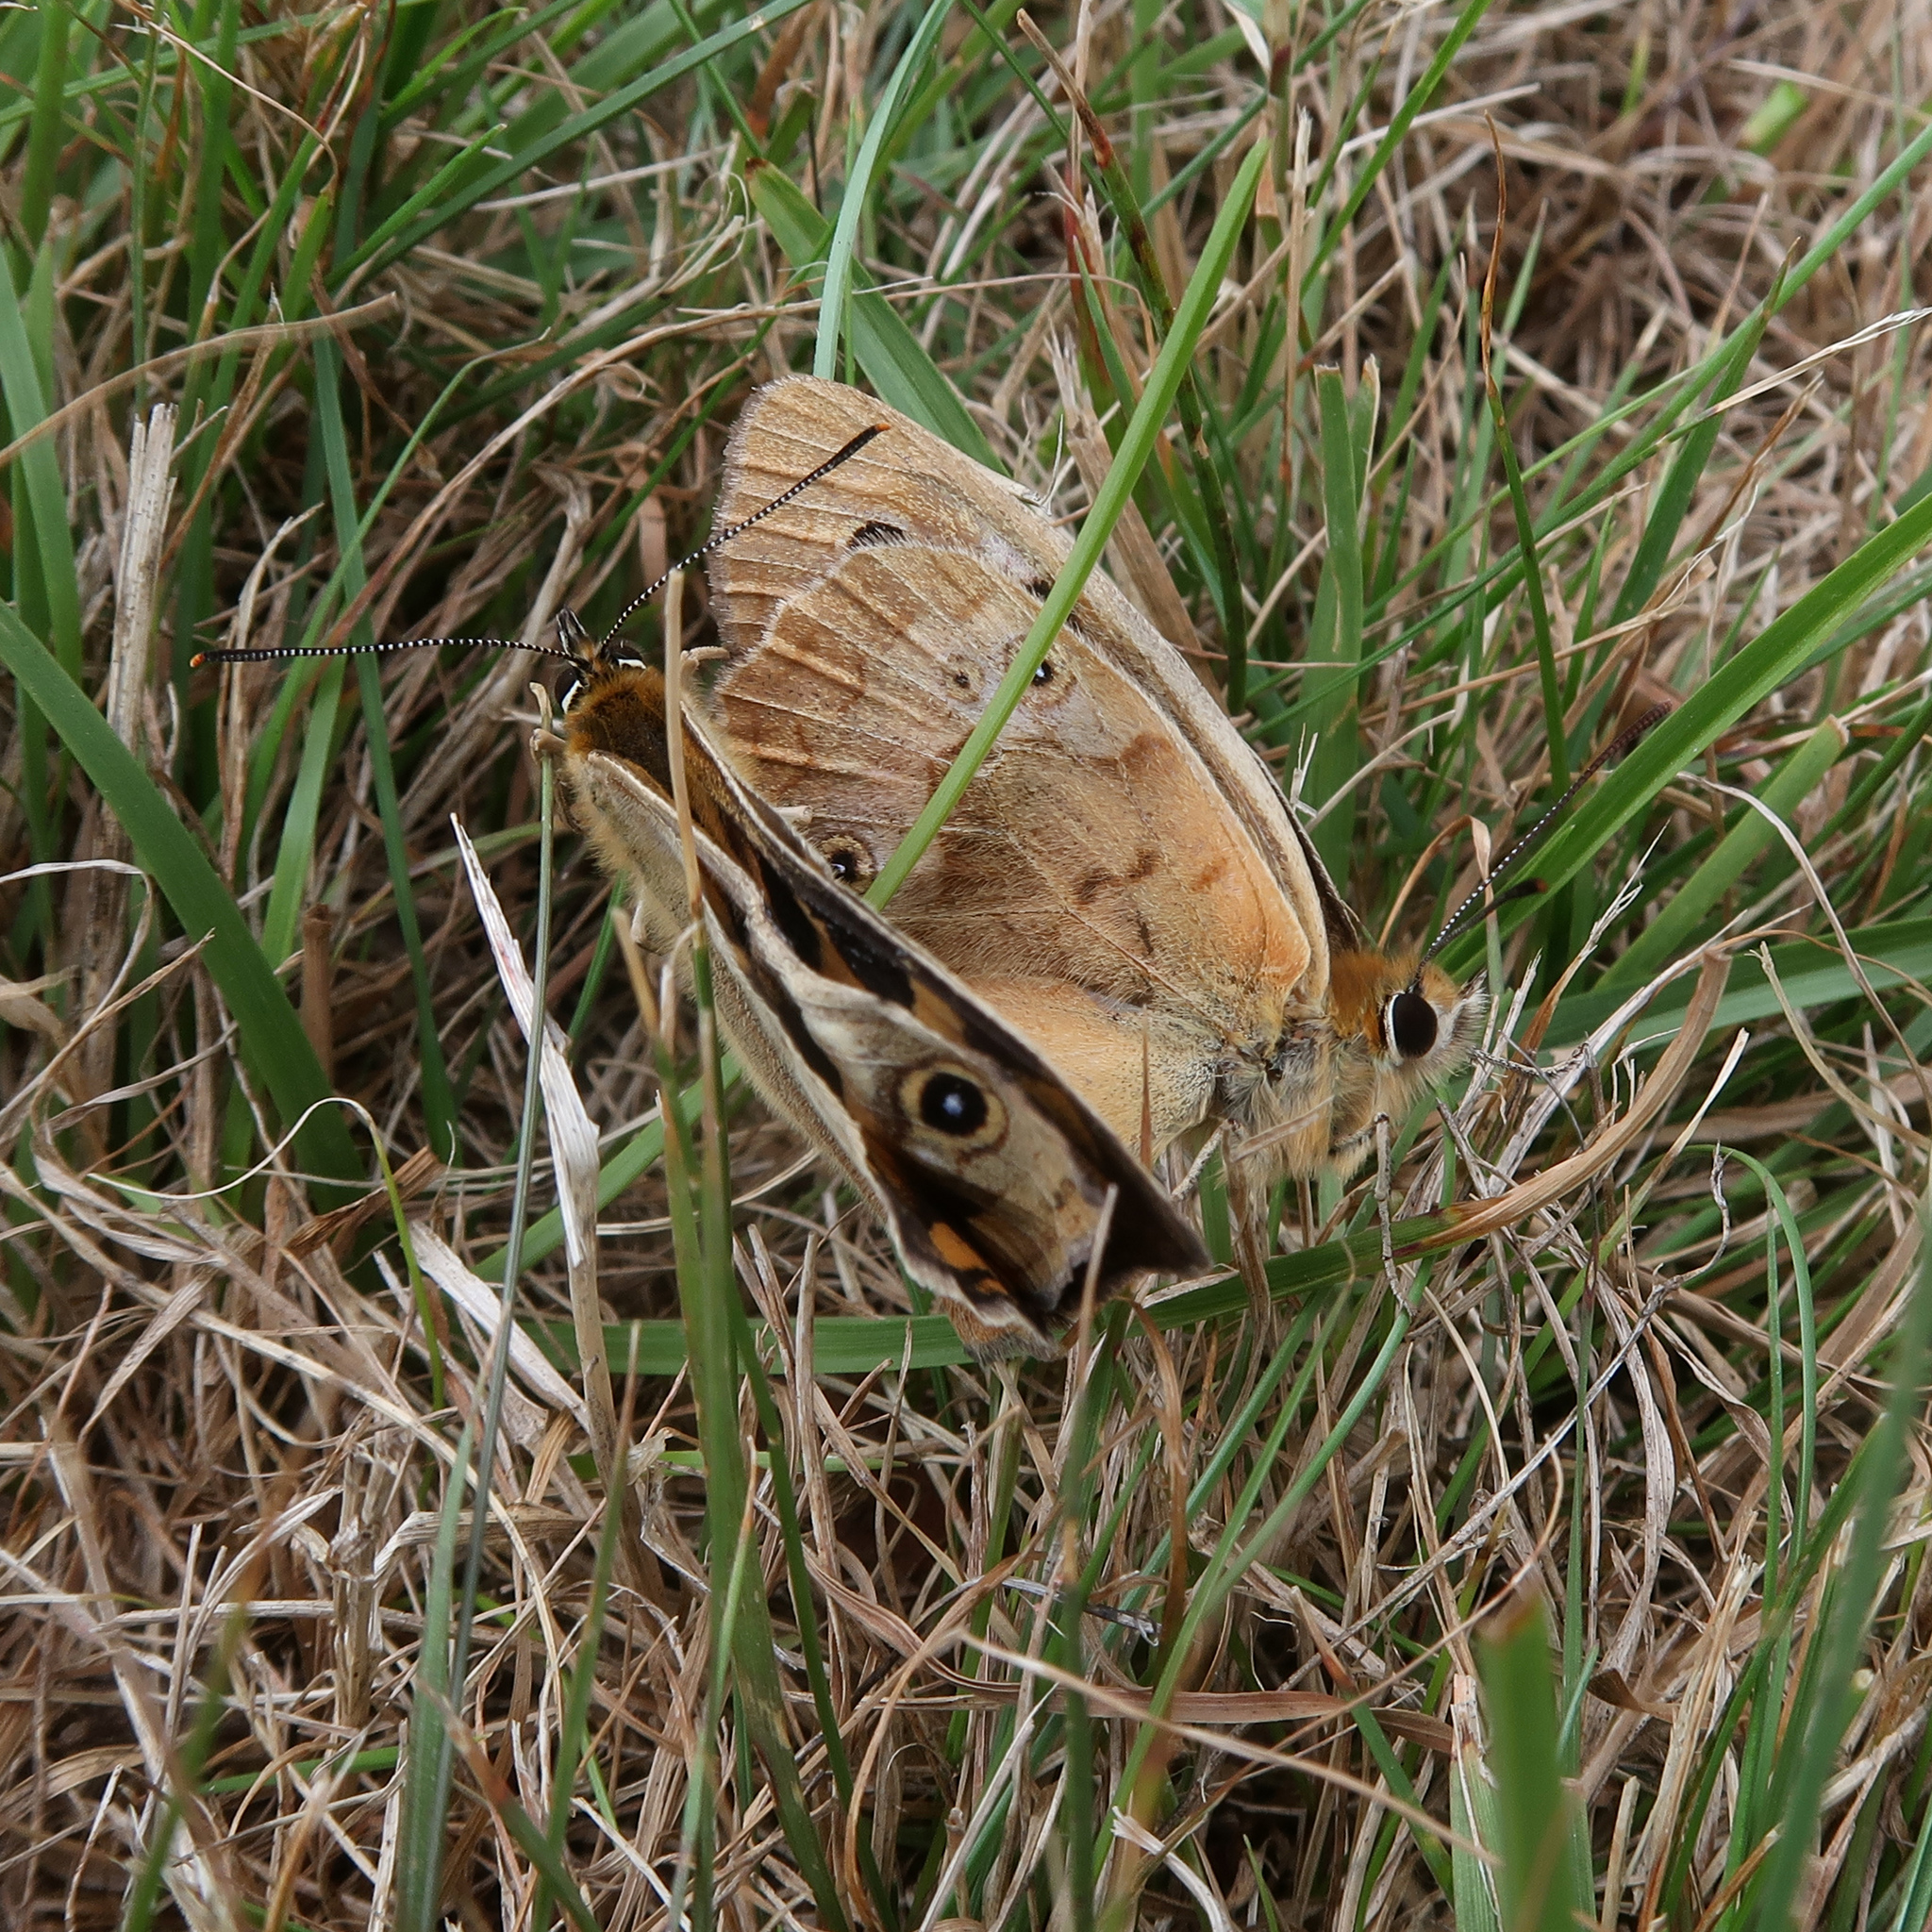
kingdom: Animalia
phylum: Arthropoda
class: Insecta
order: Lepidoptera
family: Nymphalidae
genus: Heteronympha
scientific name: Heteronympha merope
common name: Common brown
